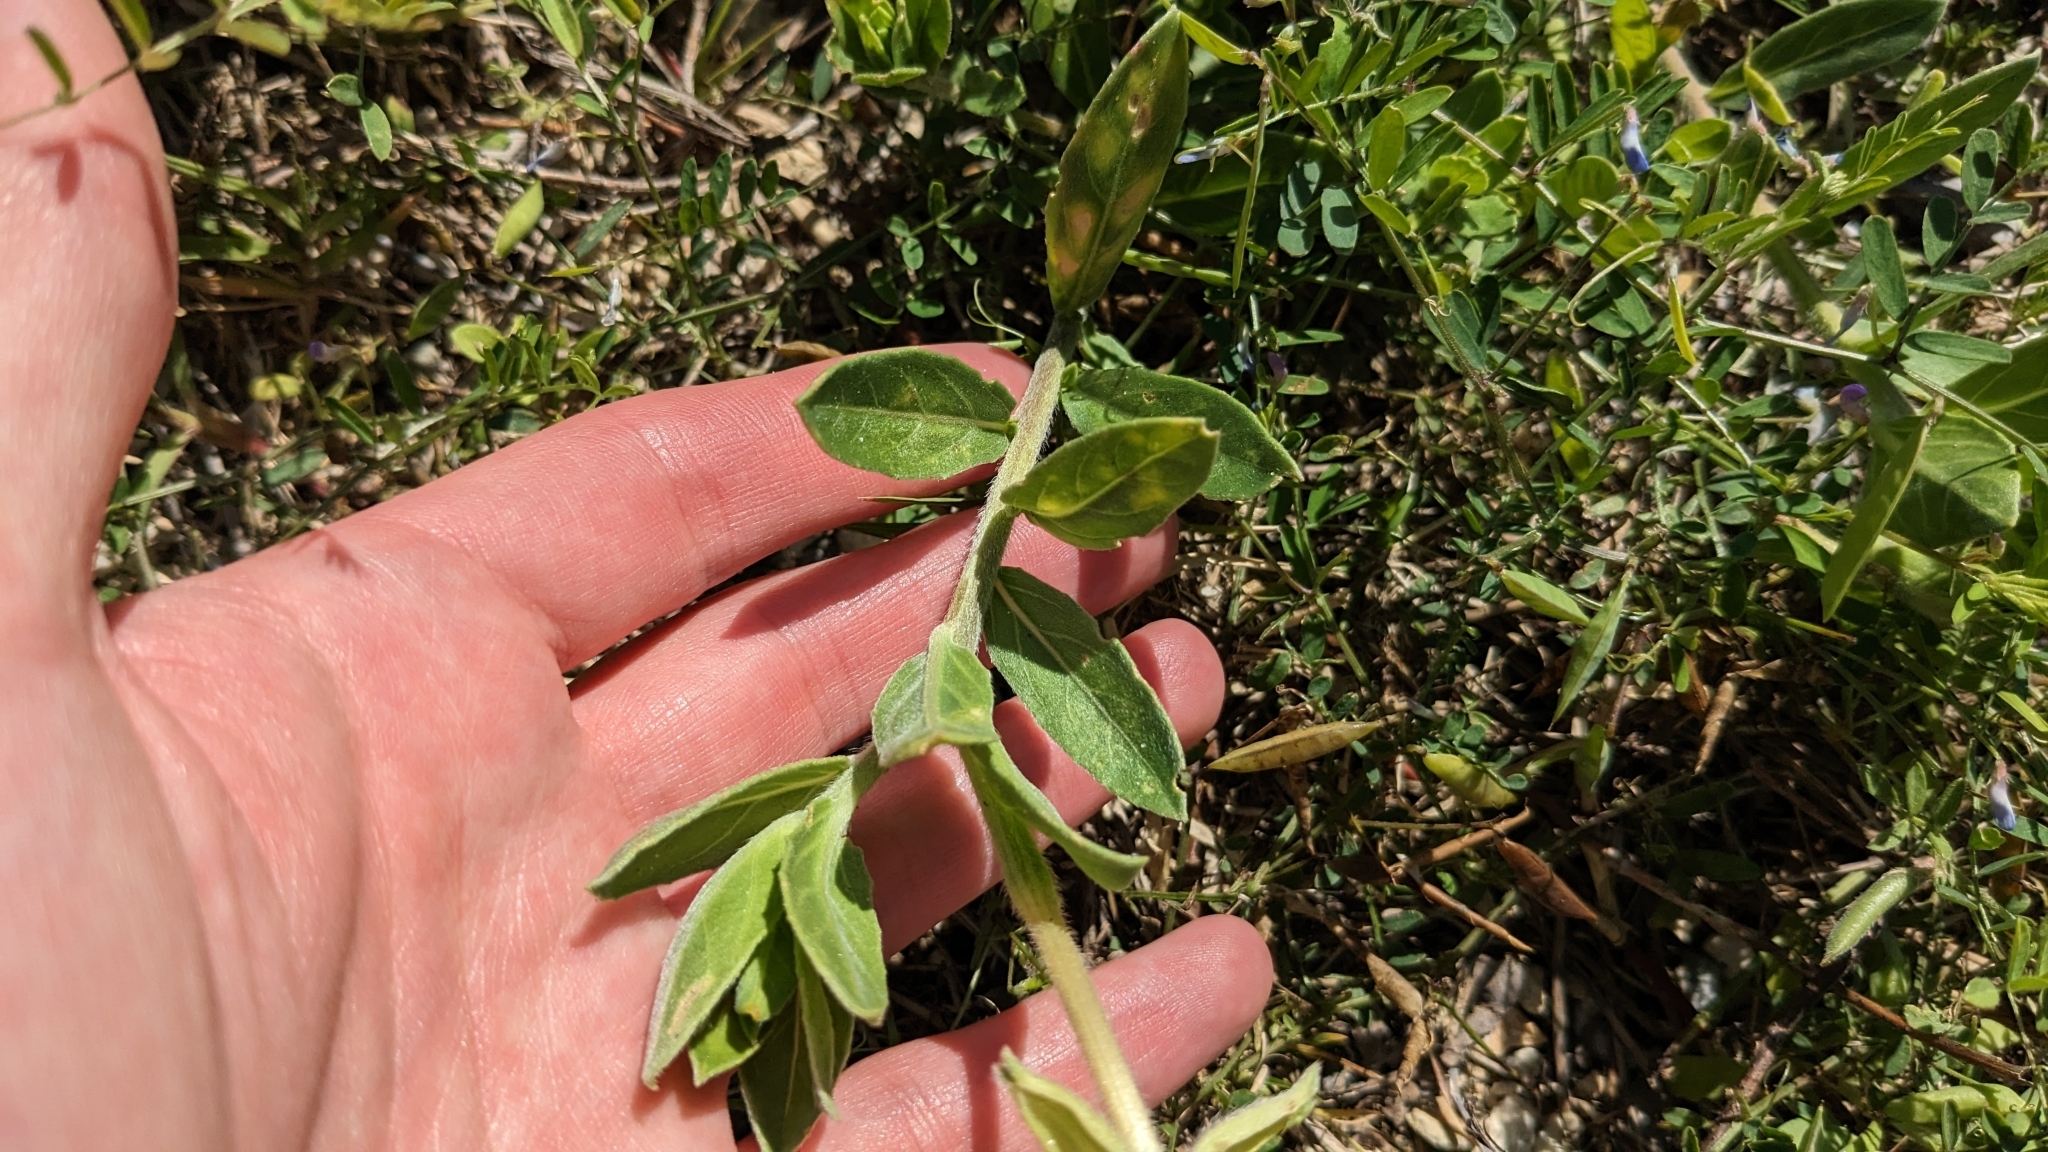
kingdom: Plantae
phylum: Tracheophyta
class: Magnoliopsida
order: Myrtales
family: Onagraceae
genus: Oenothera
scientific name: Oenothera drummondii
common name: Beach evening-primrose
